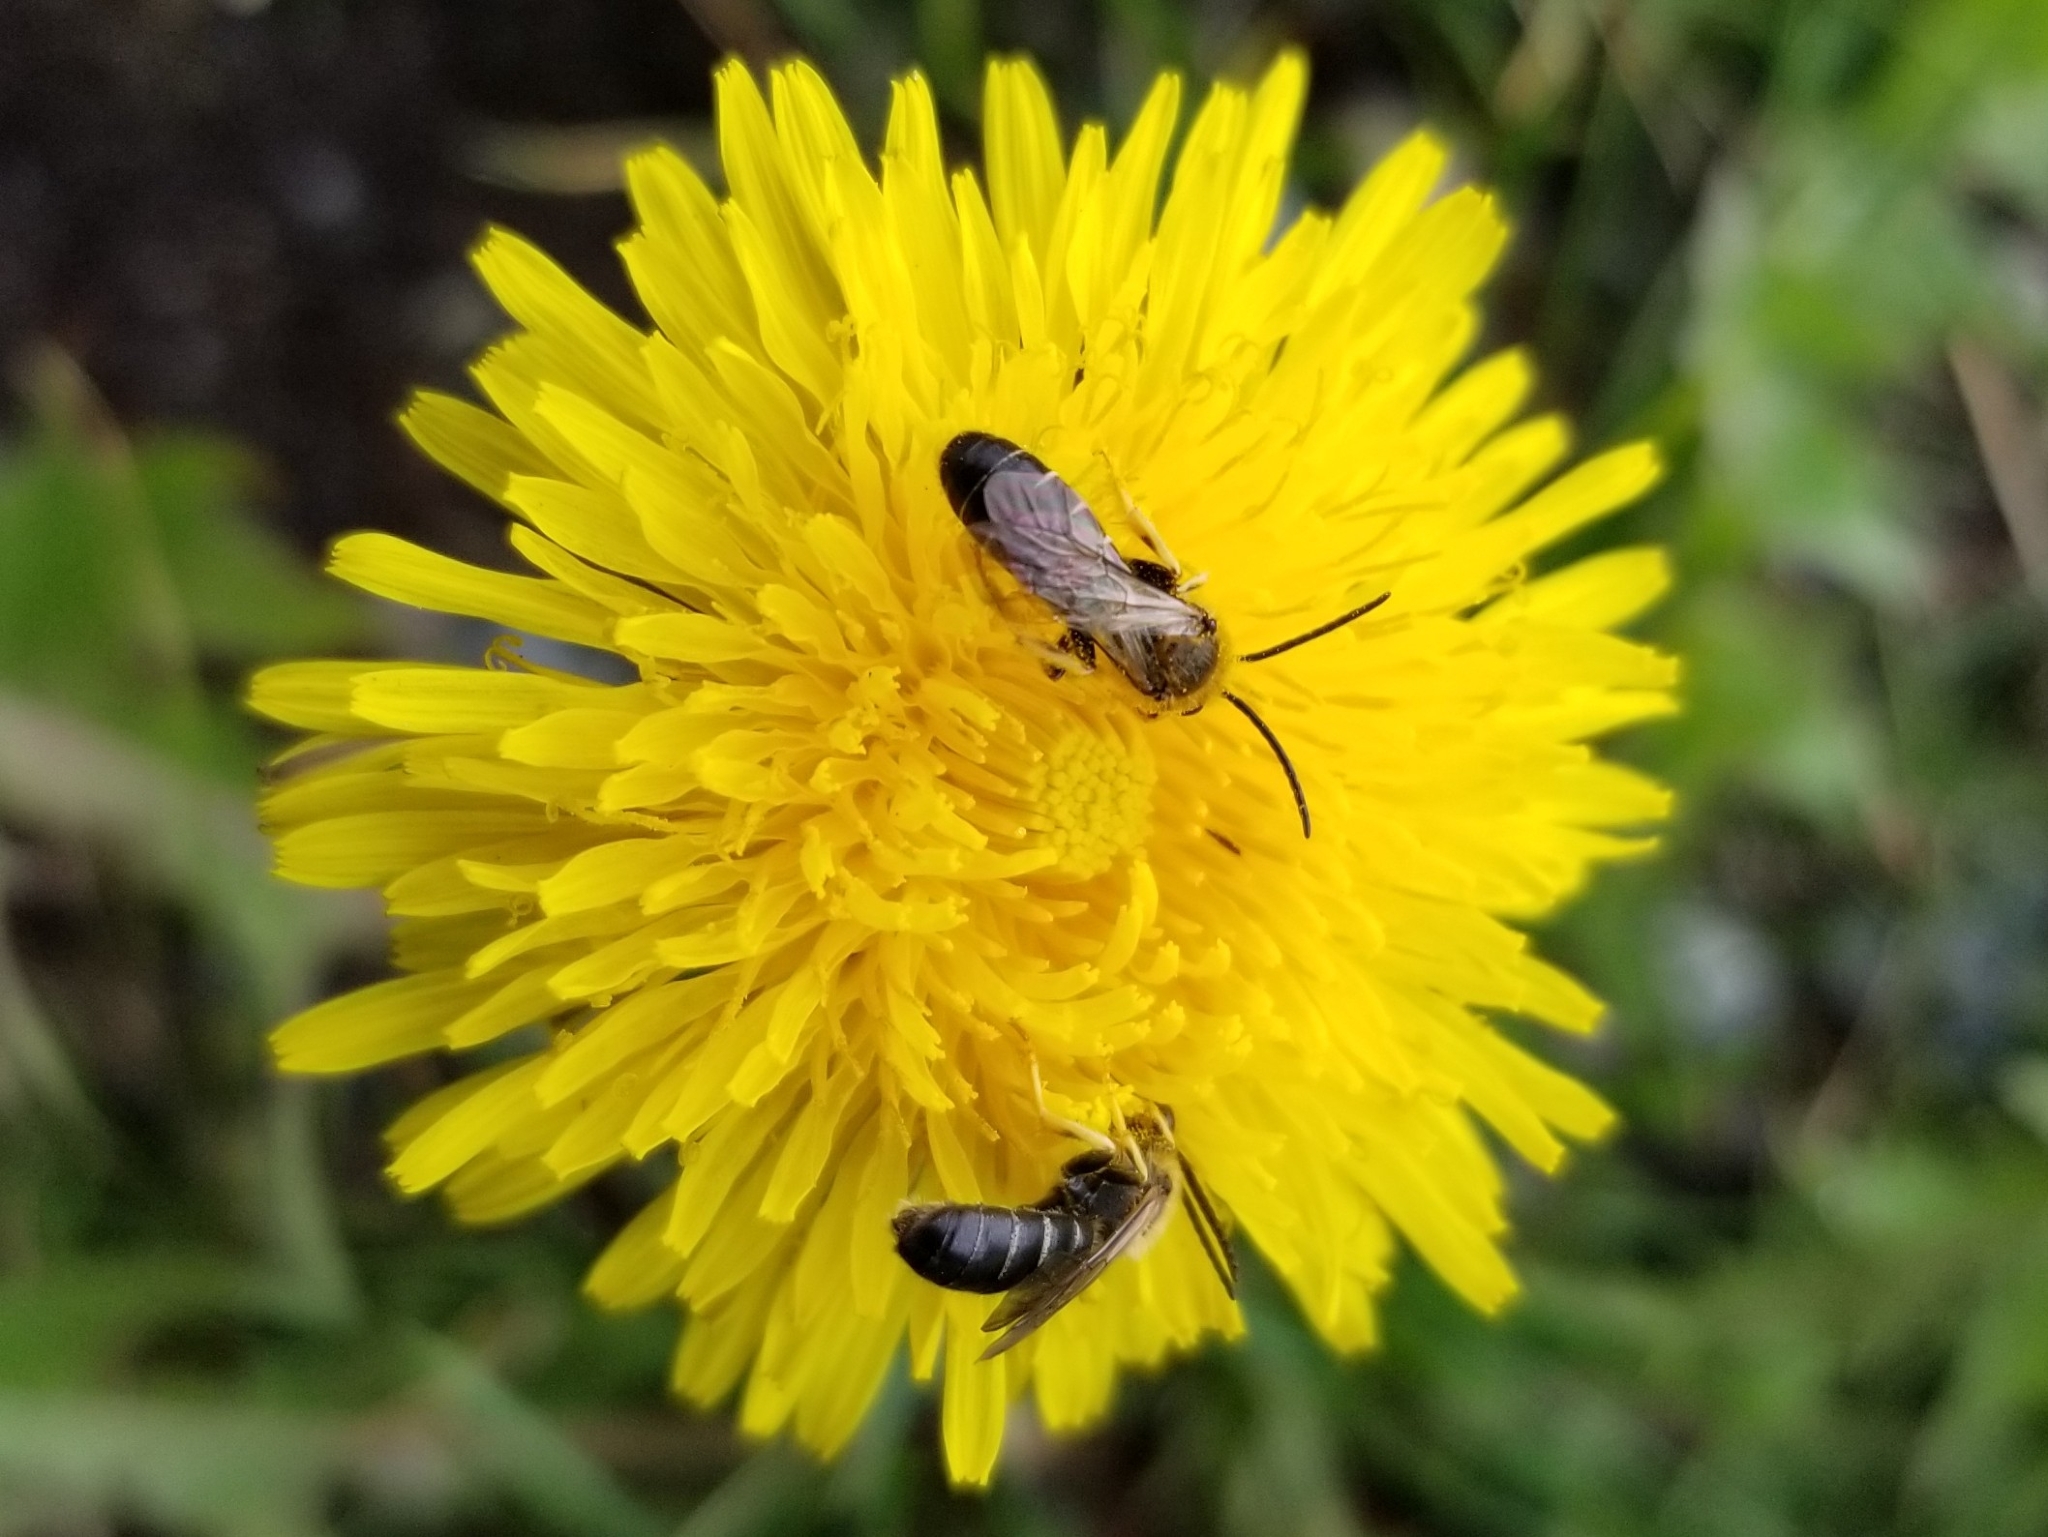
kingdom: Animalia
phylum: Arthropoda
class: Insecta
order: Hymenoptera
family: Halictidae
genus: Halictus
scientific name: Halictus rubicundus
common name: Orange-legged furrow bee
